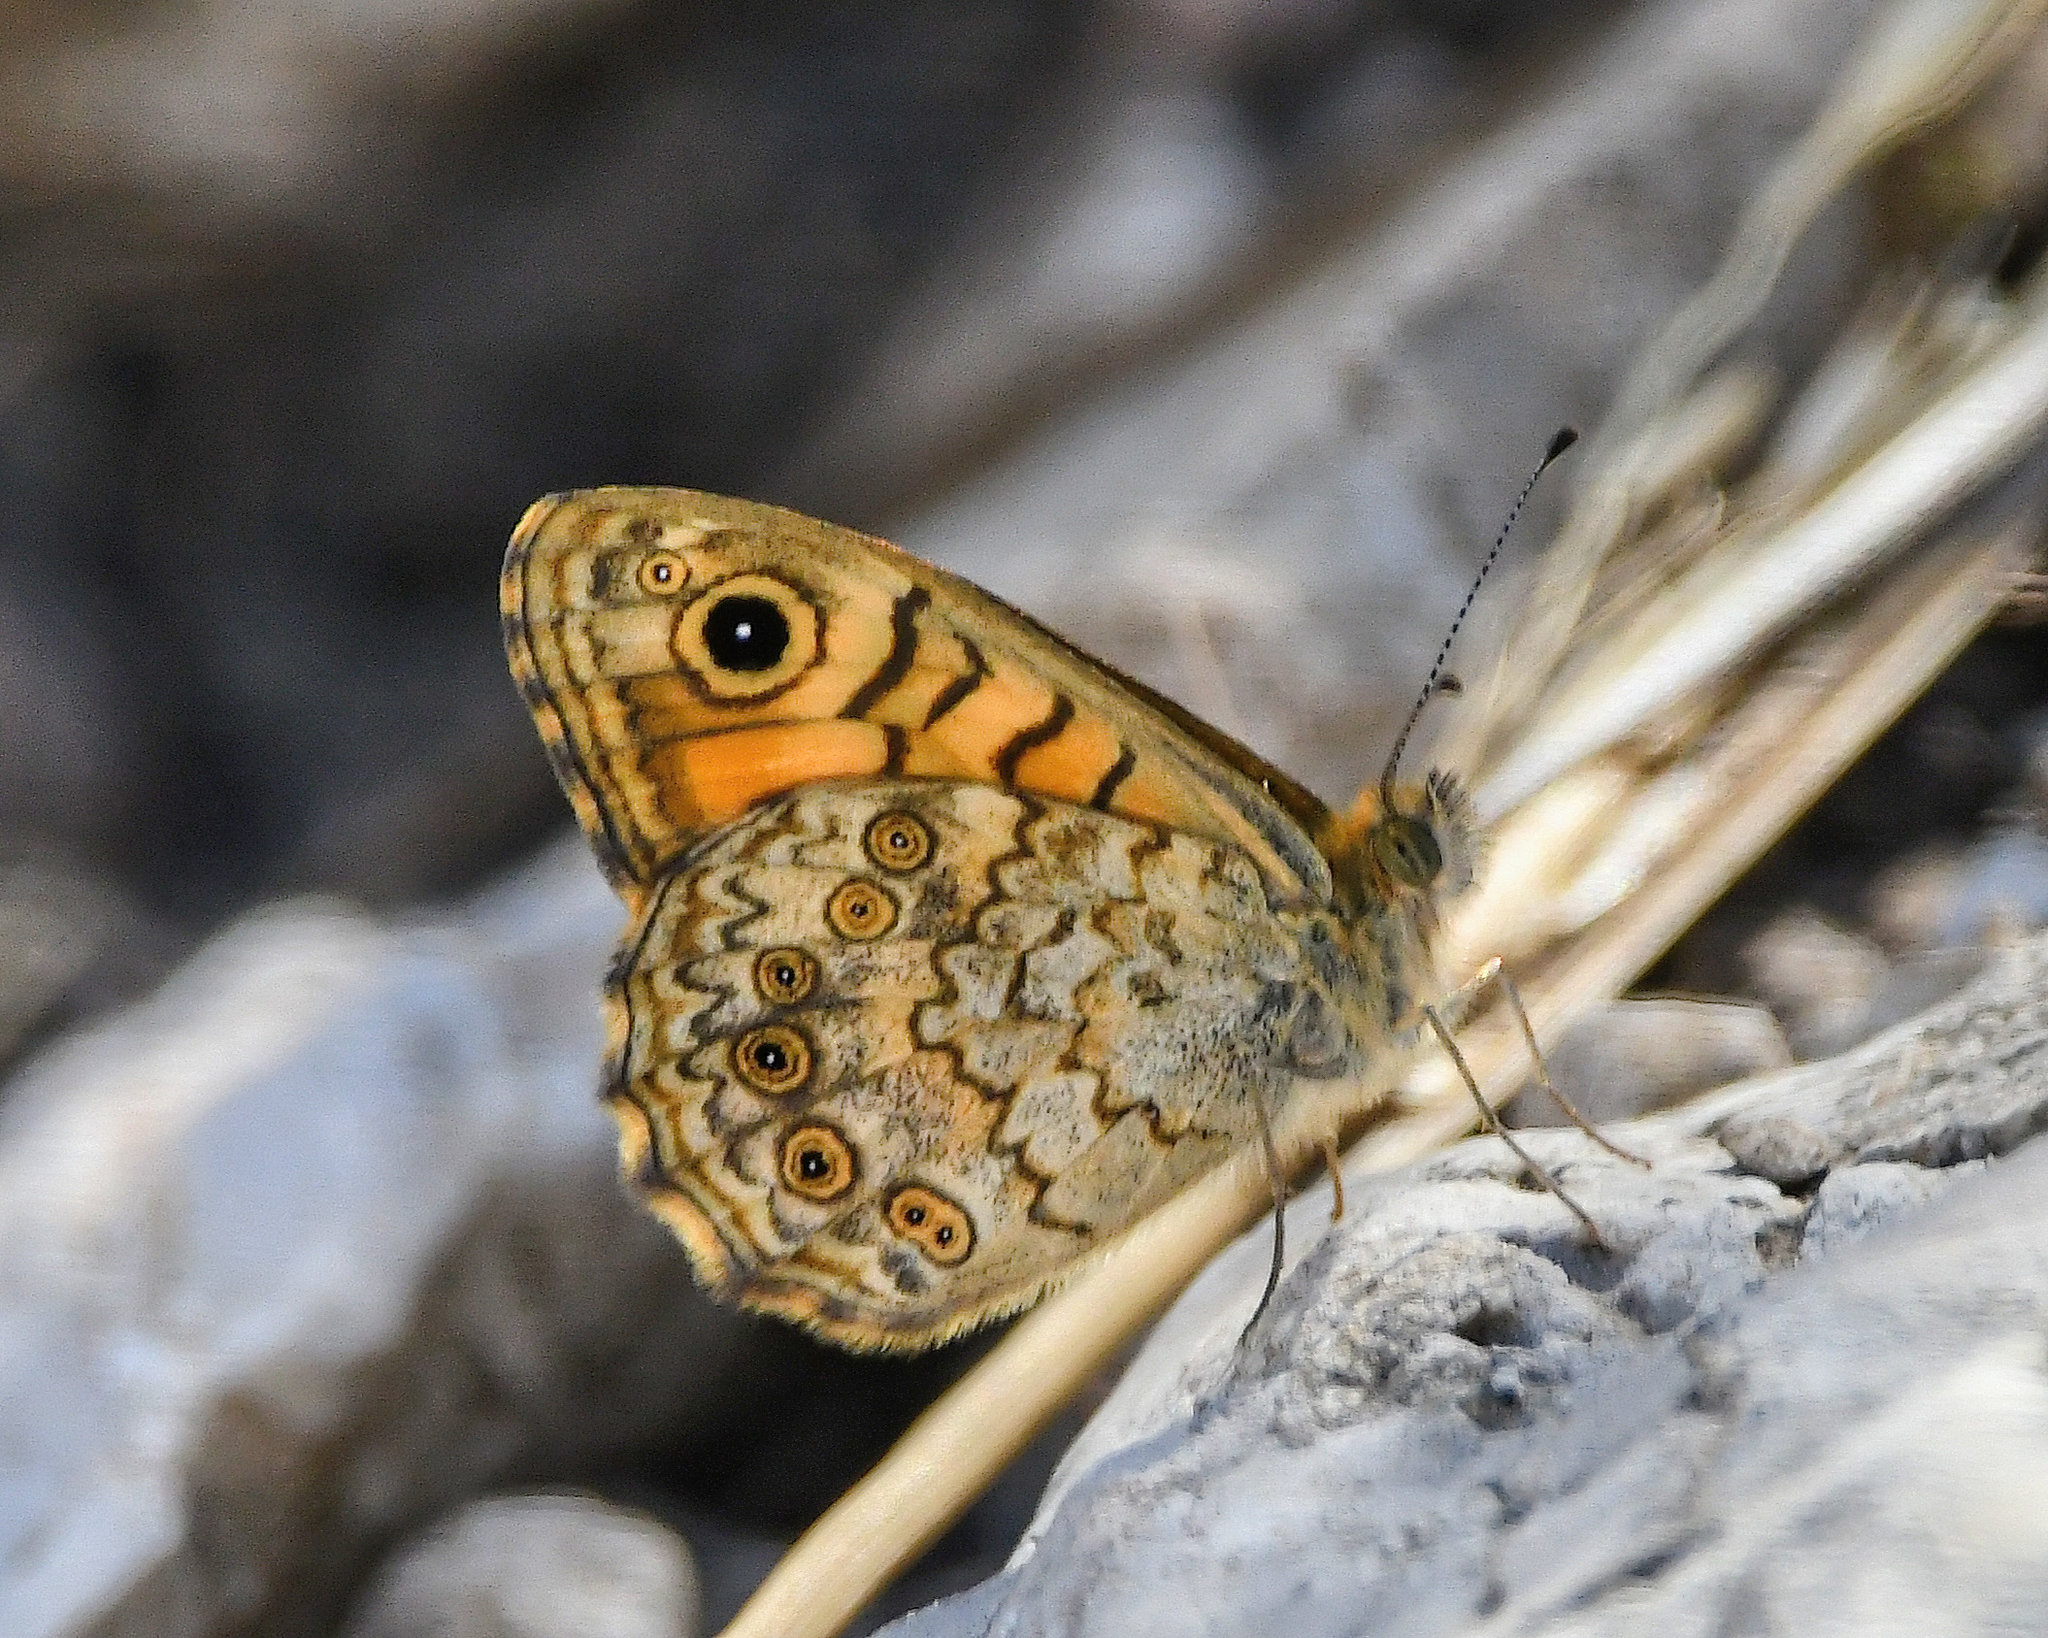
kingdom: Animalia
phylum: Arthropoda
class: Insecta
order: Lepidoptera
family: Nymphalidae
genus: Pararge
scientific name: Pararge Lasiommata megera
